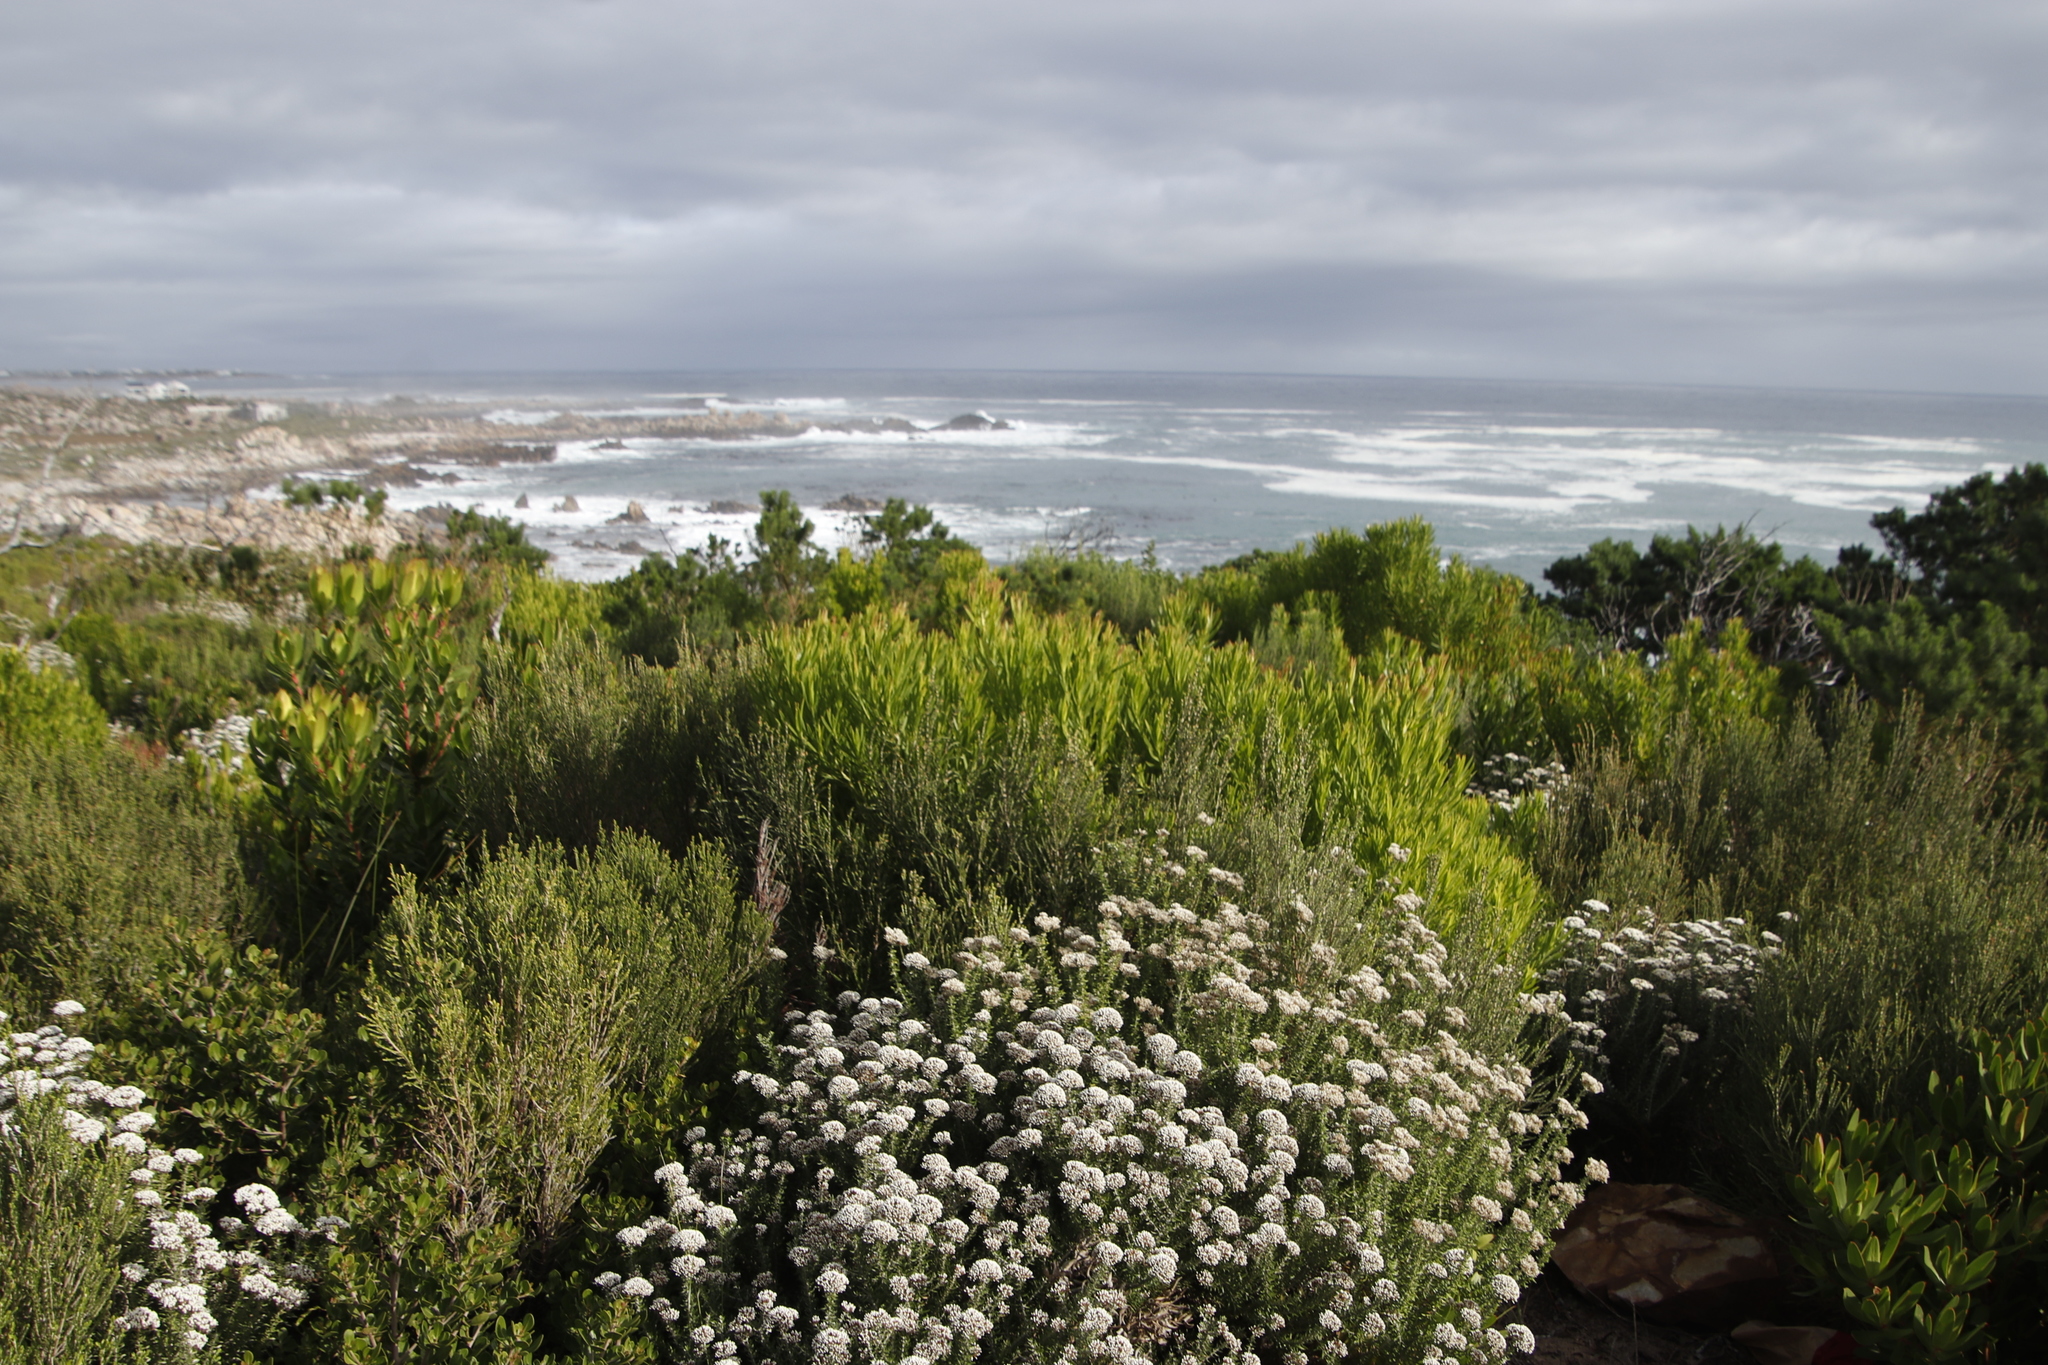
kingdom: Plantae
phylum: Tracheophyta
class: Magnoliopsida
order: Proteales
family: Proteaceae
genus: Leucadendron
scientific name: Leucadendron gandogeri
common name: Broad-leaf conebush
